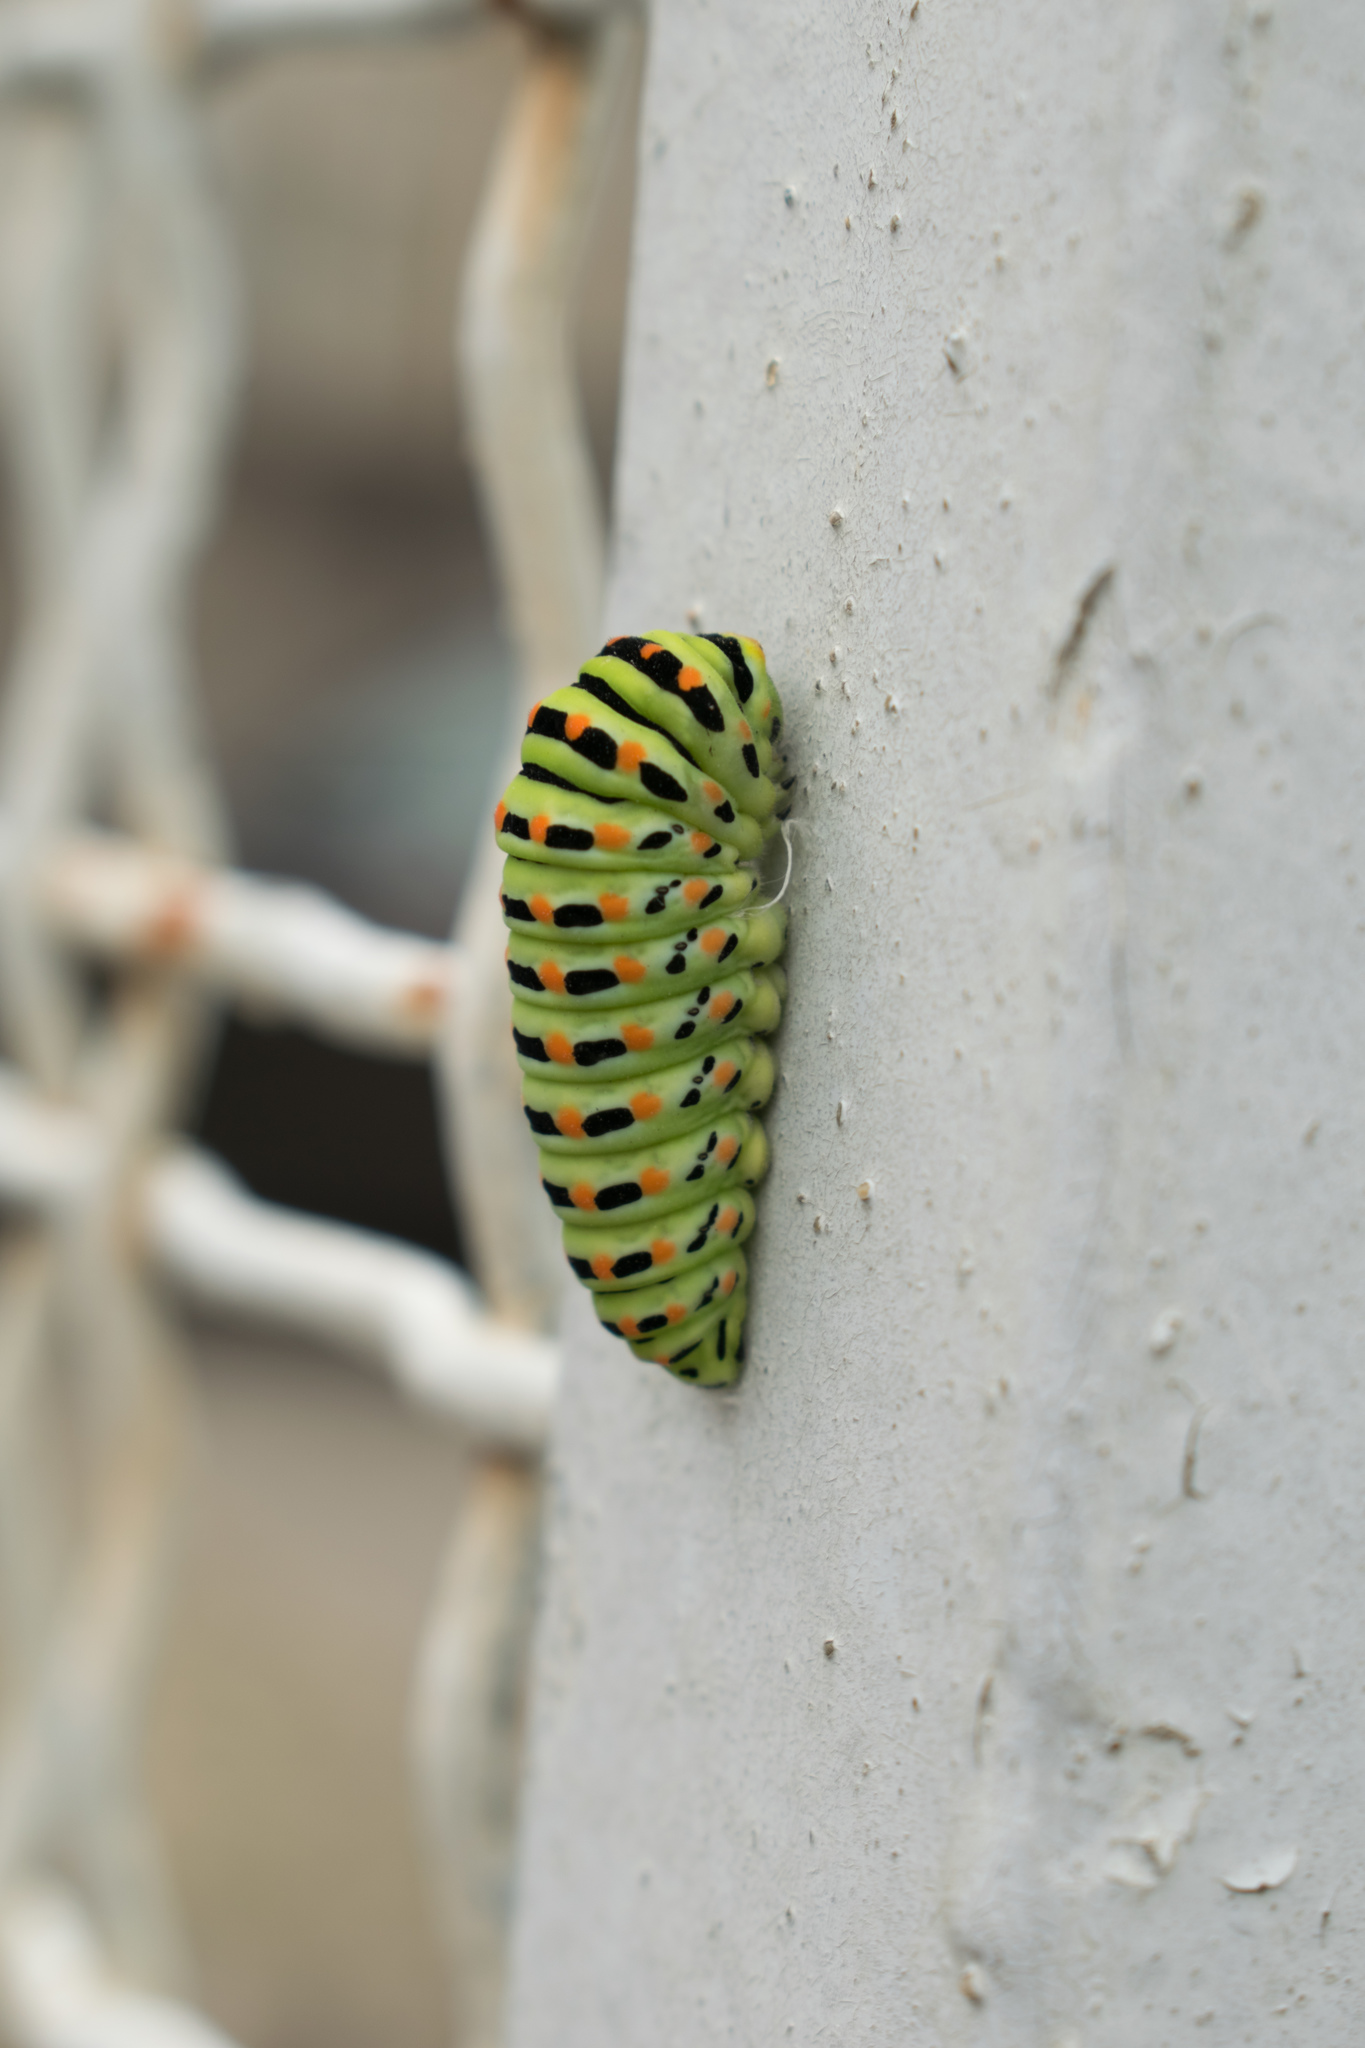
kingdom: Animalia
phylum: Arthropoda
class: Insecta
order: Lepidoptera
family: Papilionidae
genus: Papilio
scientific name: Papilio machaon
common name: Swallowtail
